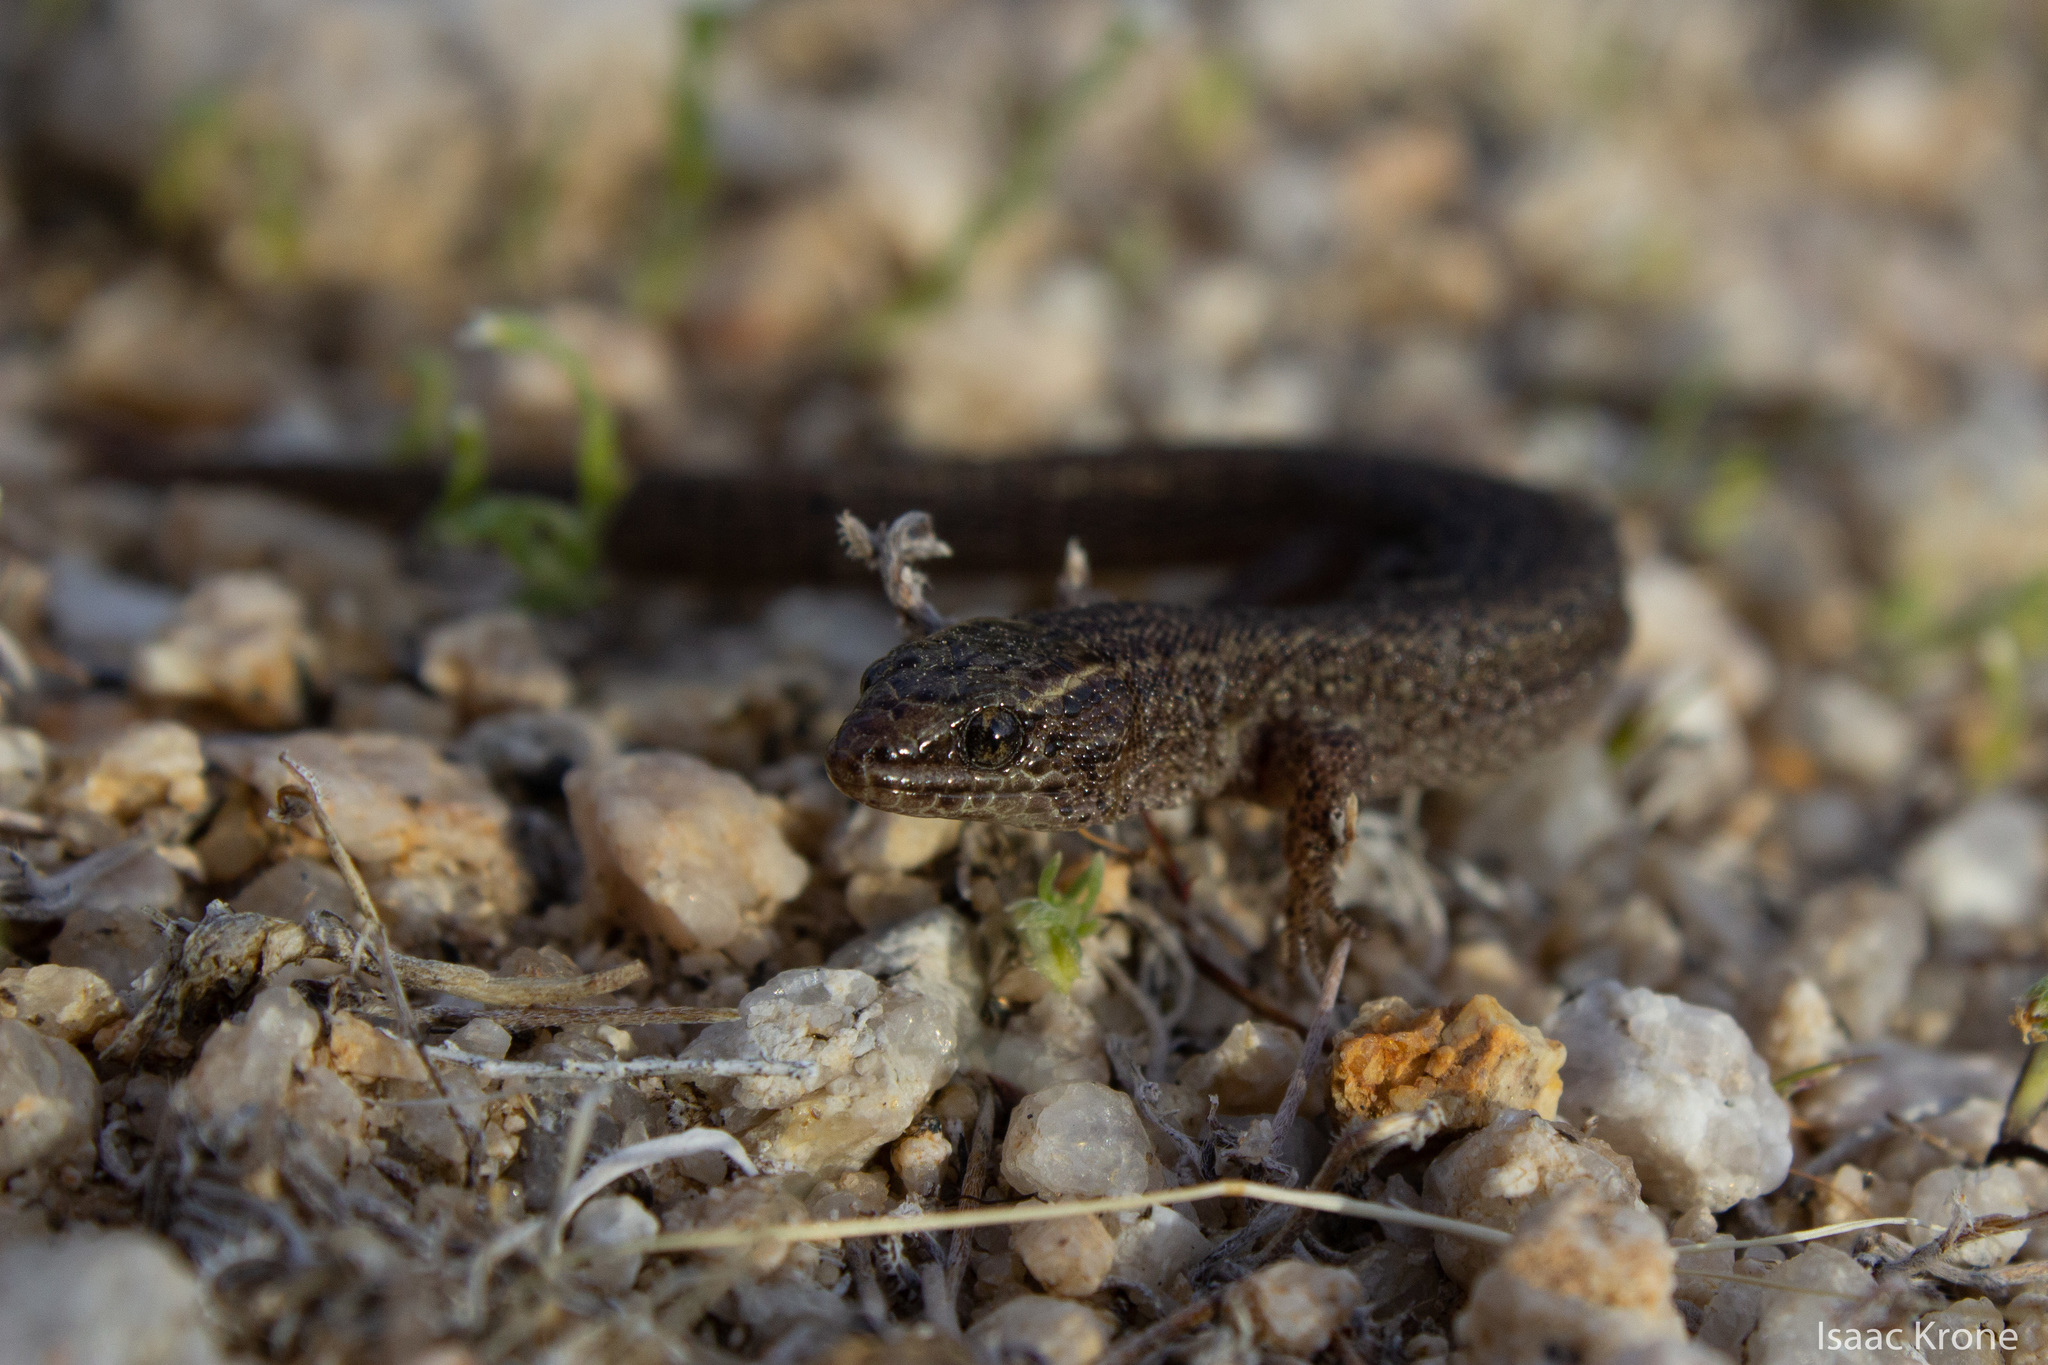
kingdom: Animalia
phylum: Chordata
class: Squamata
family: Xantusiidae
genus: Xantusia
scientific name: Xantusia vigilis
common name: Desert night lizard
